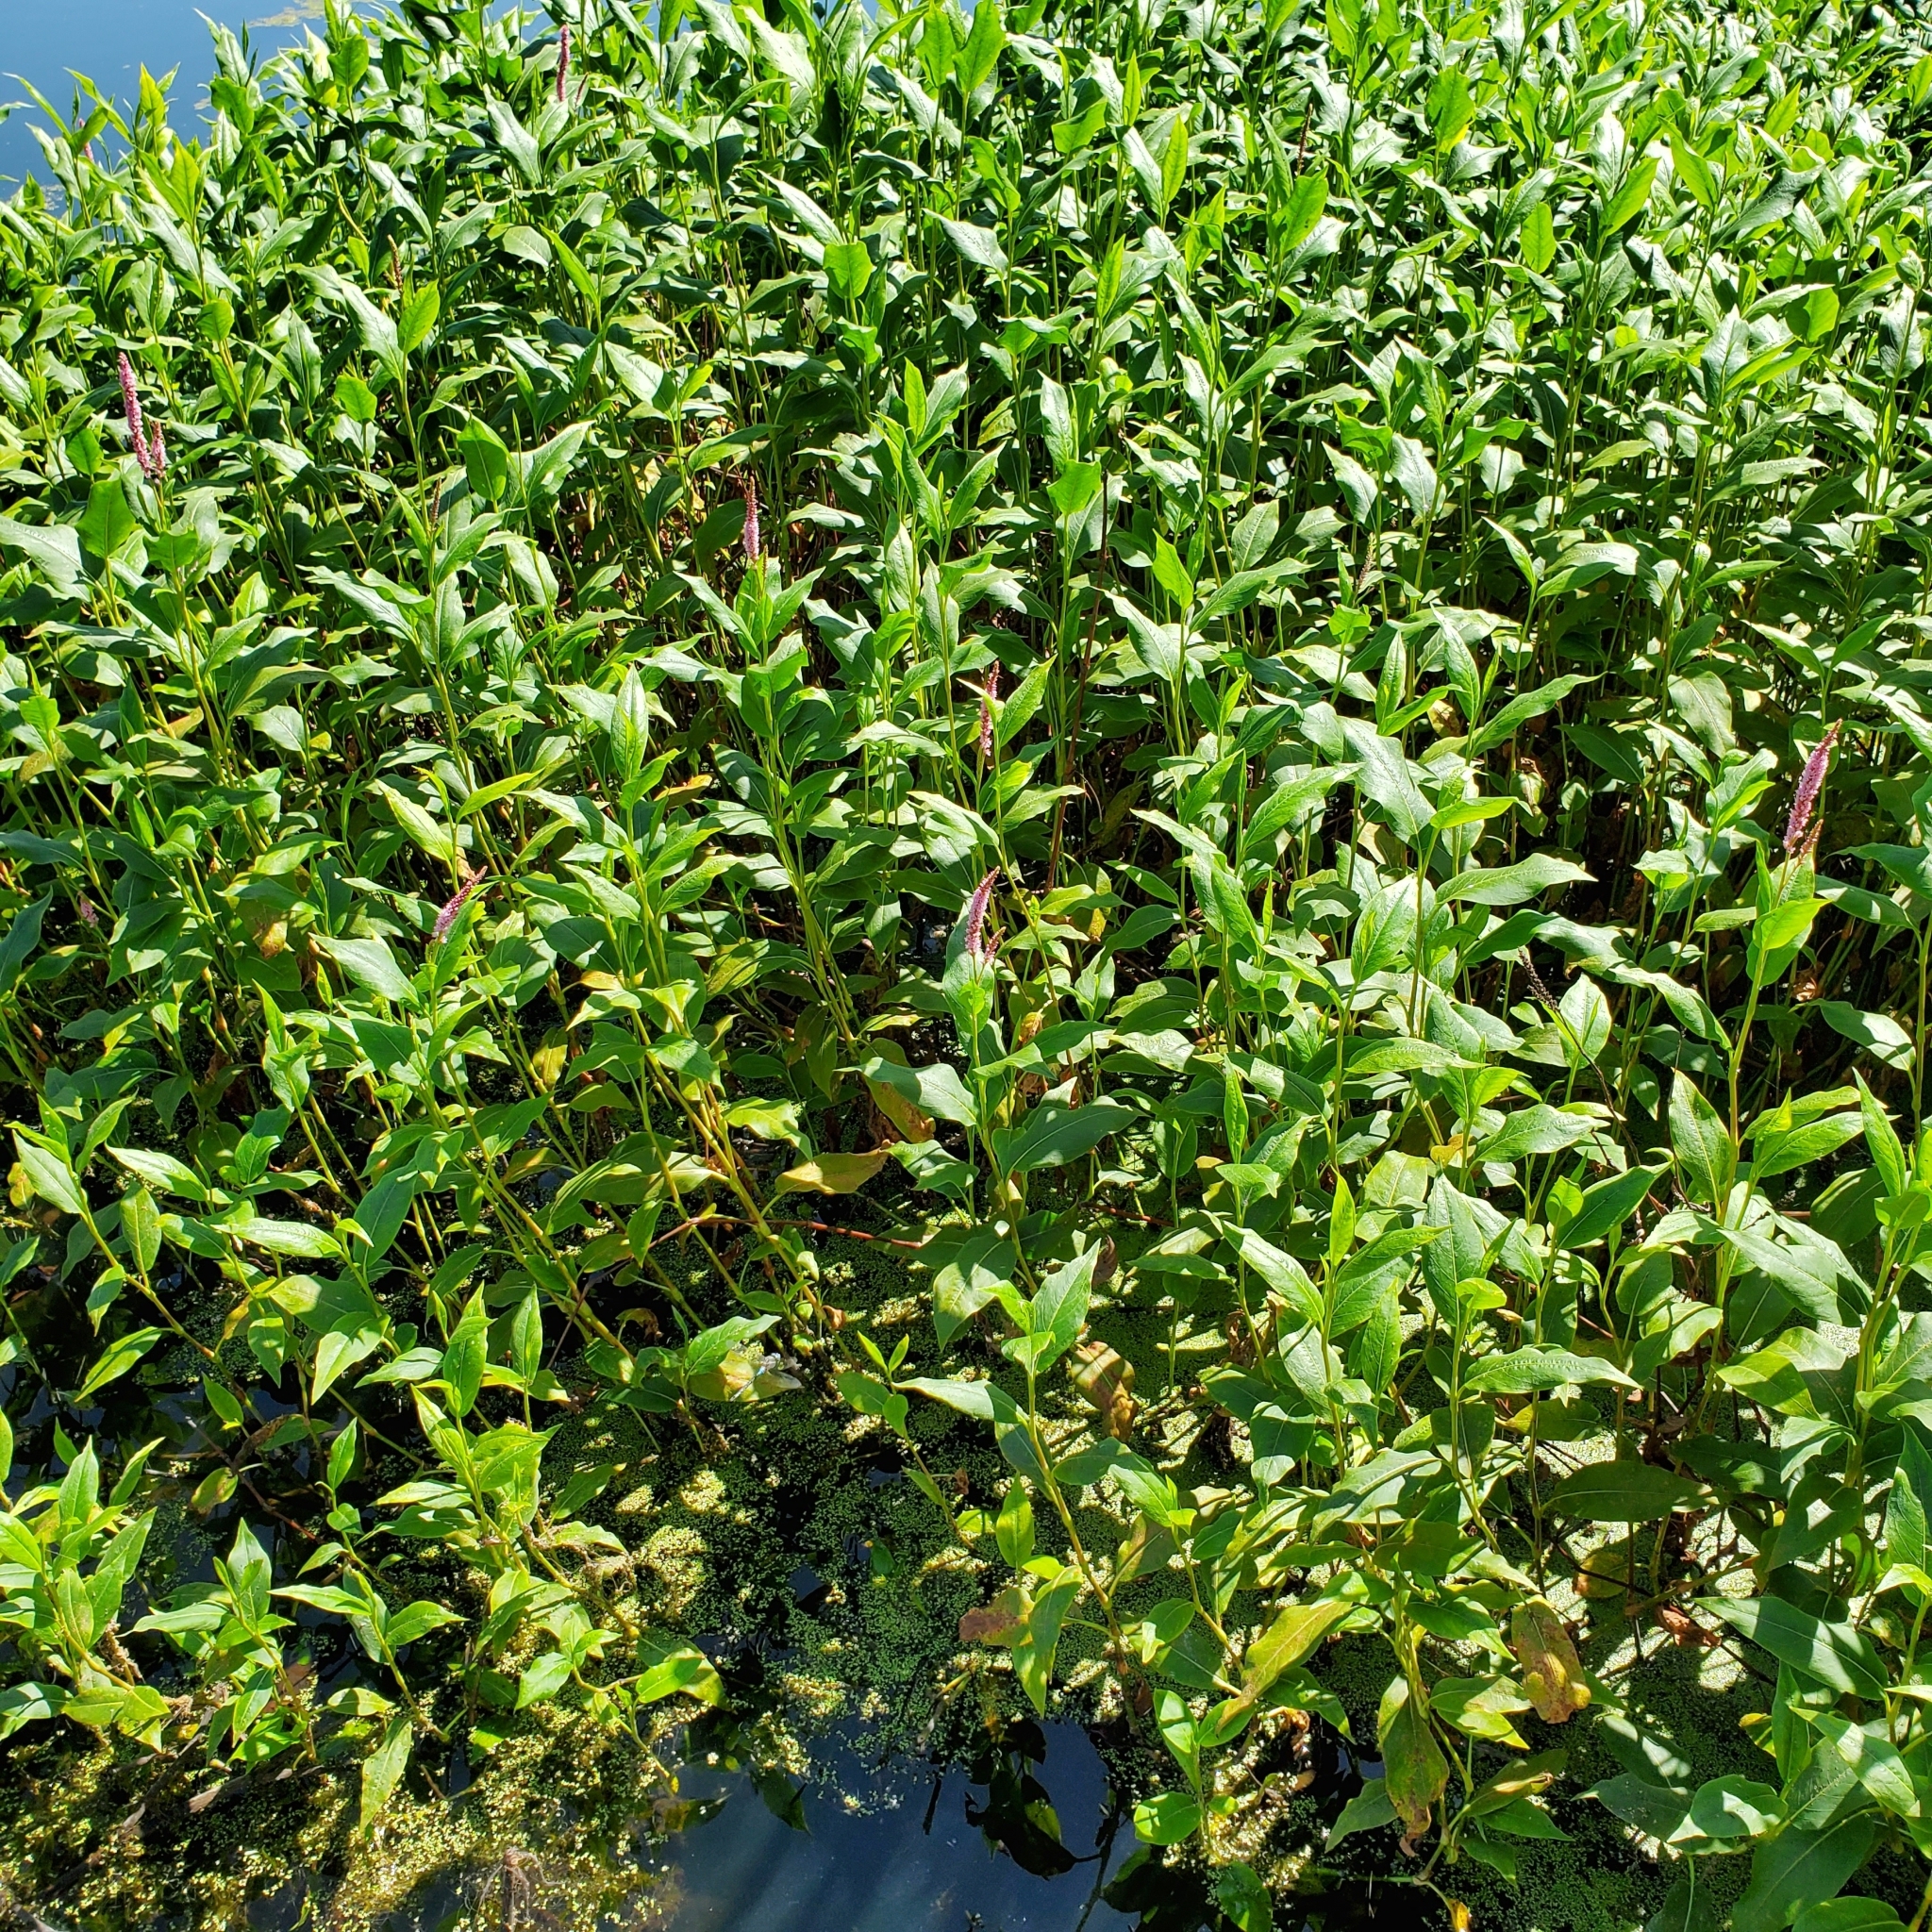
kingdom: Plantae
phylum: Tracheophyta
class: Magnoliopsida
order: Caryophyllales
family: Polygonaceae
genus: Persicaria
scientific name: Persicaria amphibia
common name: Amphibious bistort
